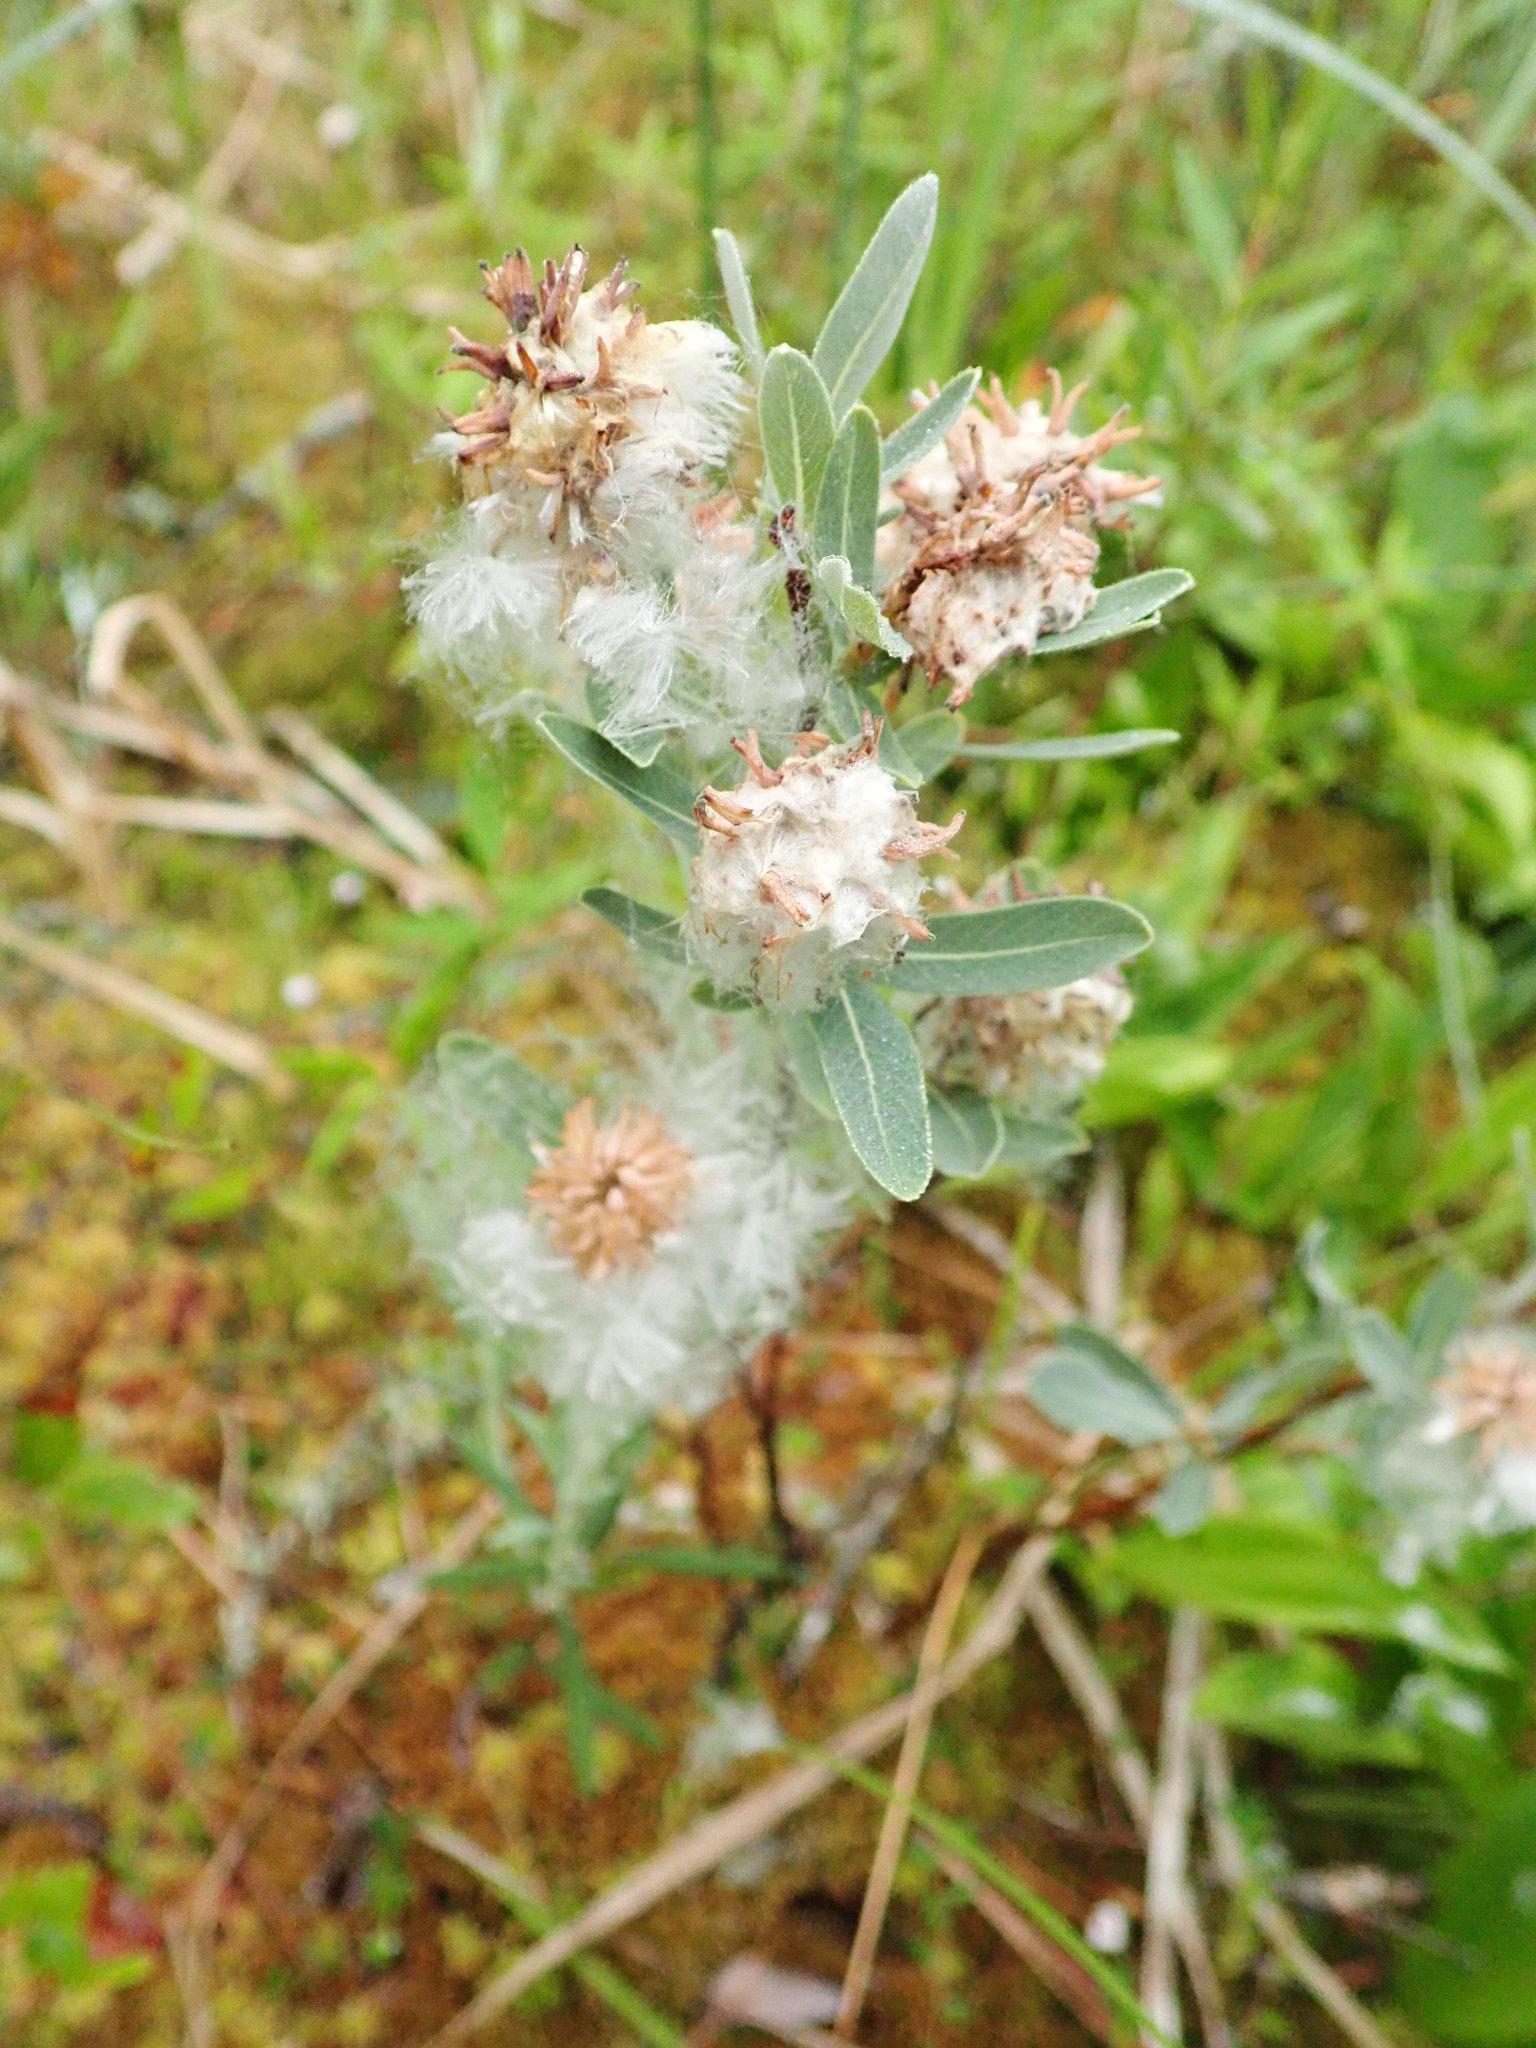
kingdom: Plantae
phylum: Tracheophyta
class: Magnoliopsida
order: Malpighiales
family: Salicaceae
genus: Salix
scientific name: Salix pedicellaris
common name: Bog willow
